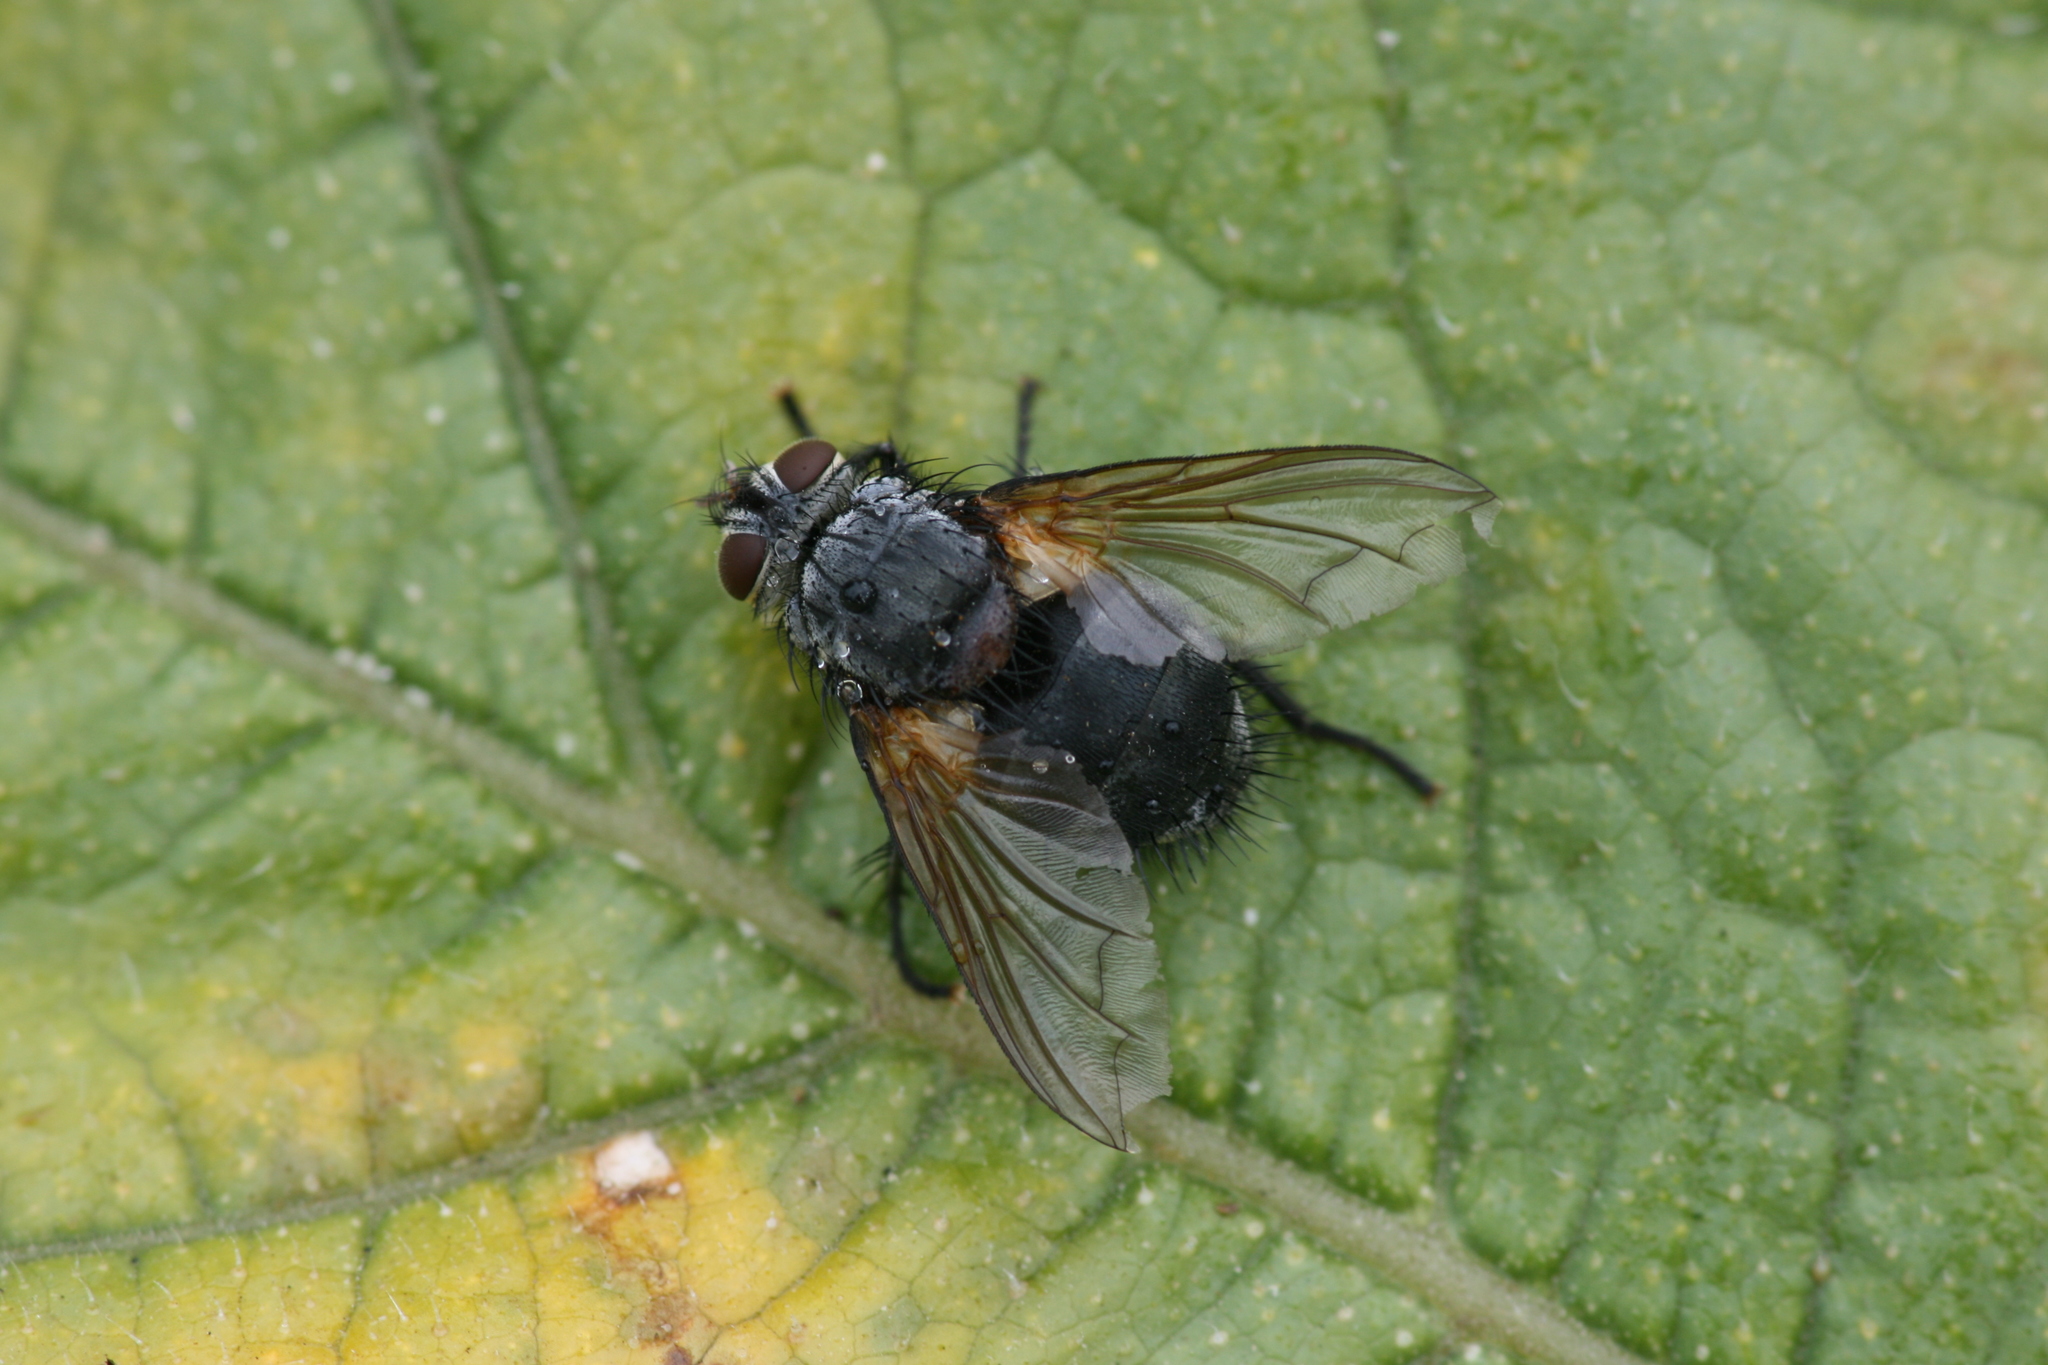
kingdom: Animalia
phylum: Arthropoda
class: Insecta
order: Diptera
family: Tachinidae
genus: Nemoraea
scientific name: Nemoraea pellucida
